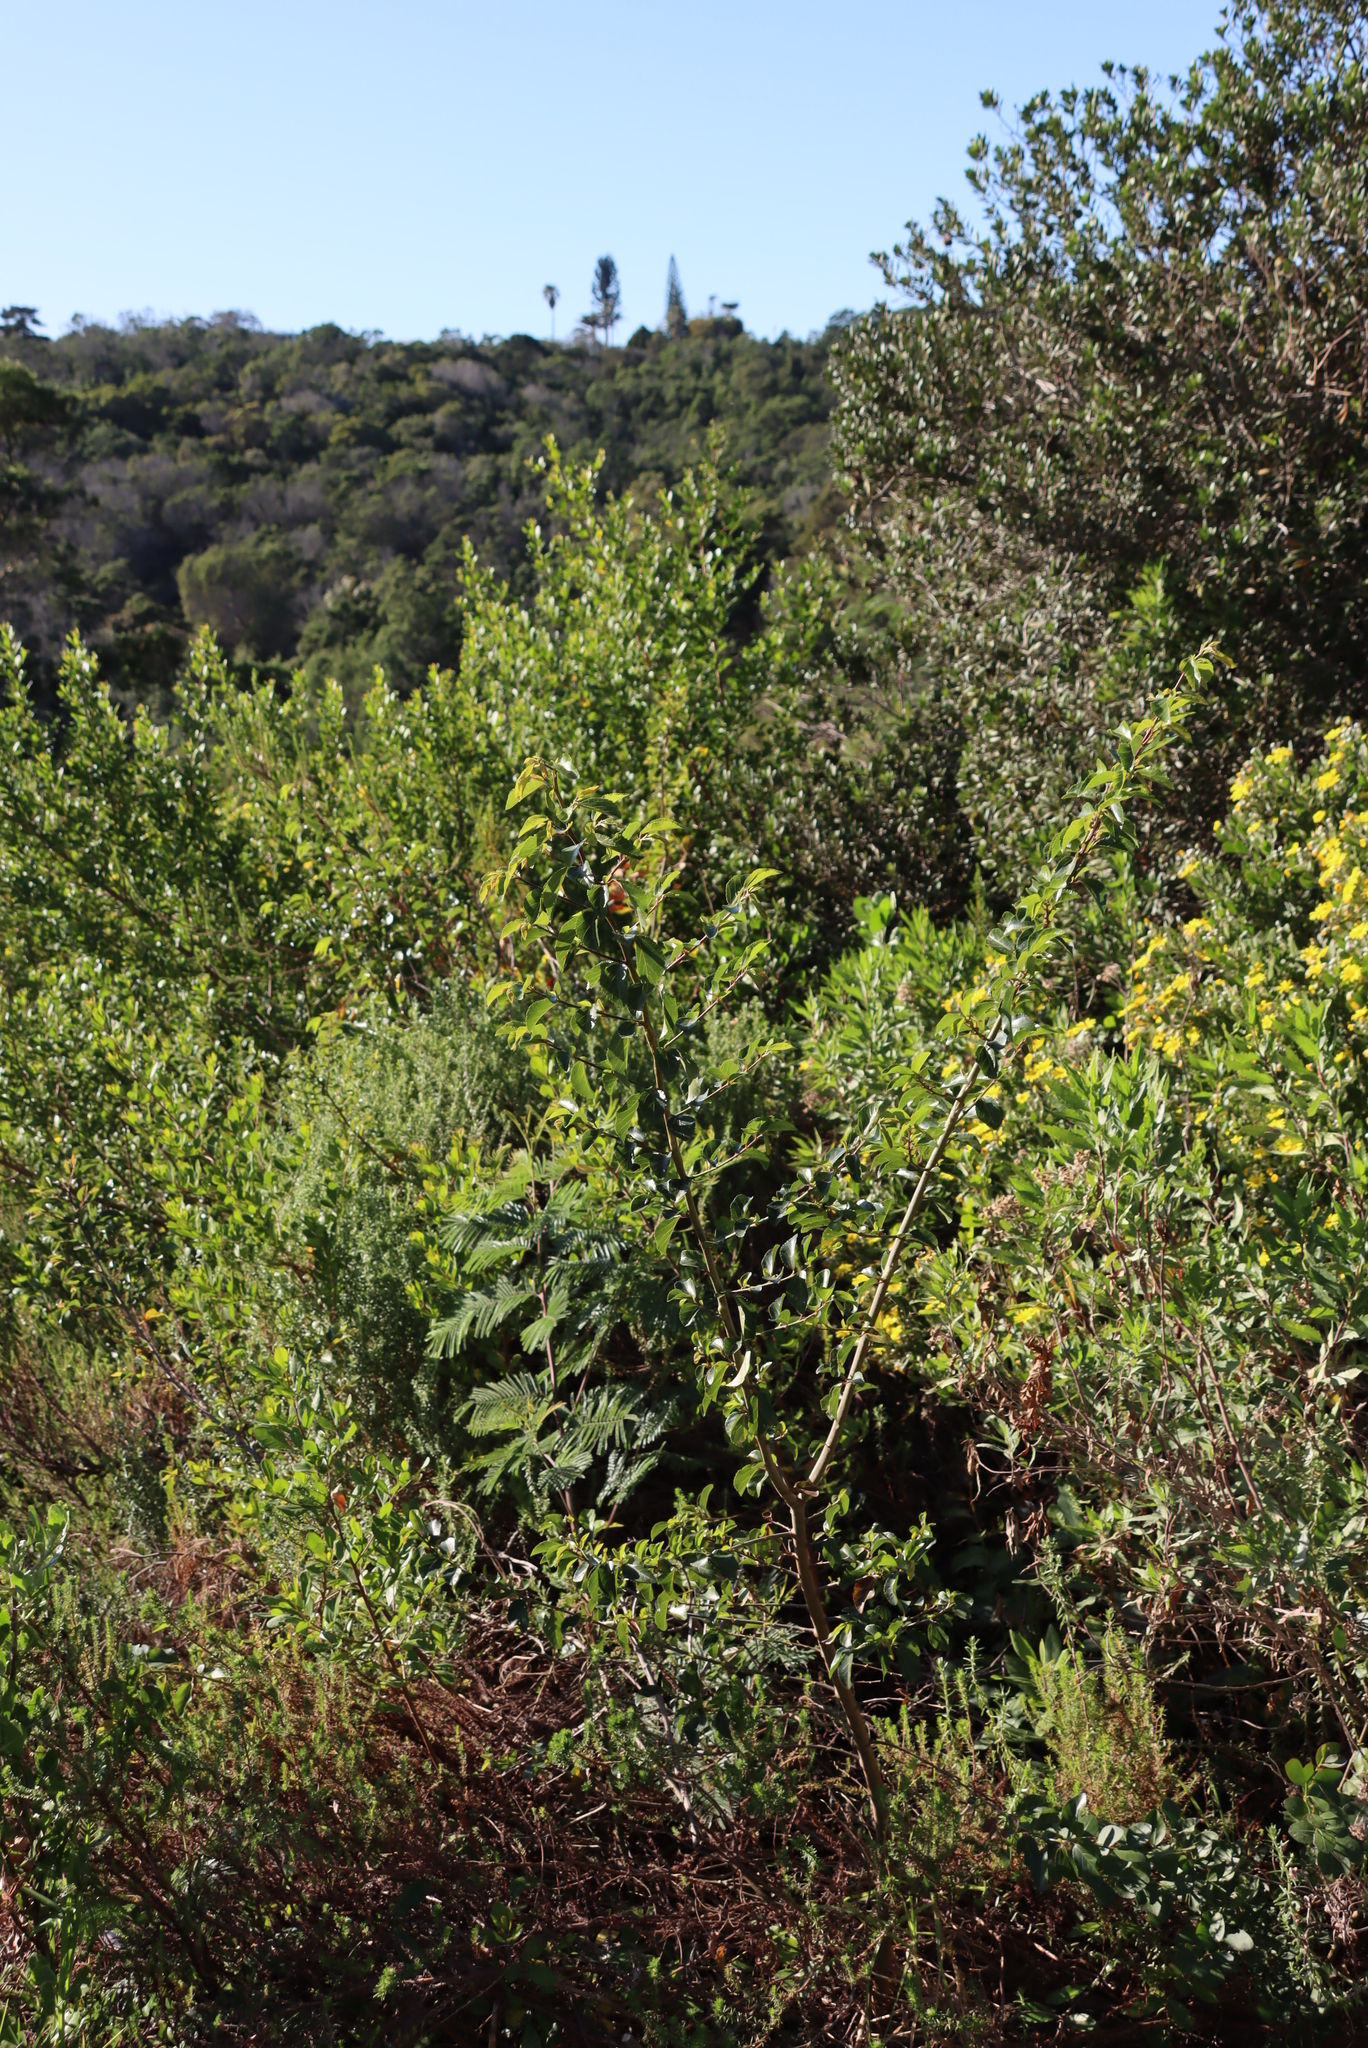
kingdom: Plantae
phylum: Tracheophyta
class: Magnoliopsida
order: Malvales
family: Malvaceae
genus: Grewia
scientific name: Grewia occidentalis
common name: Crossberry
